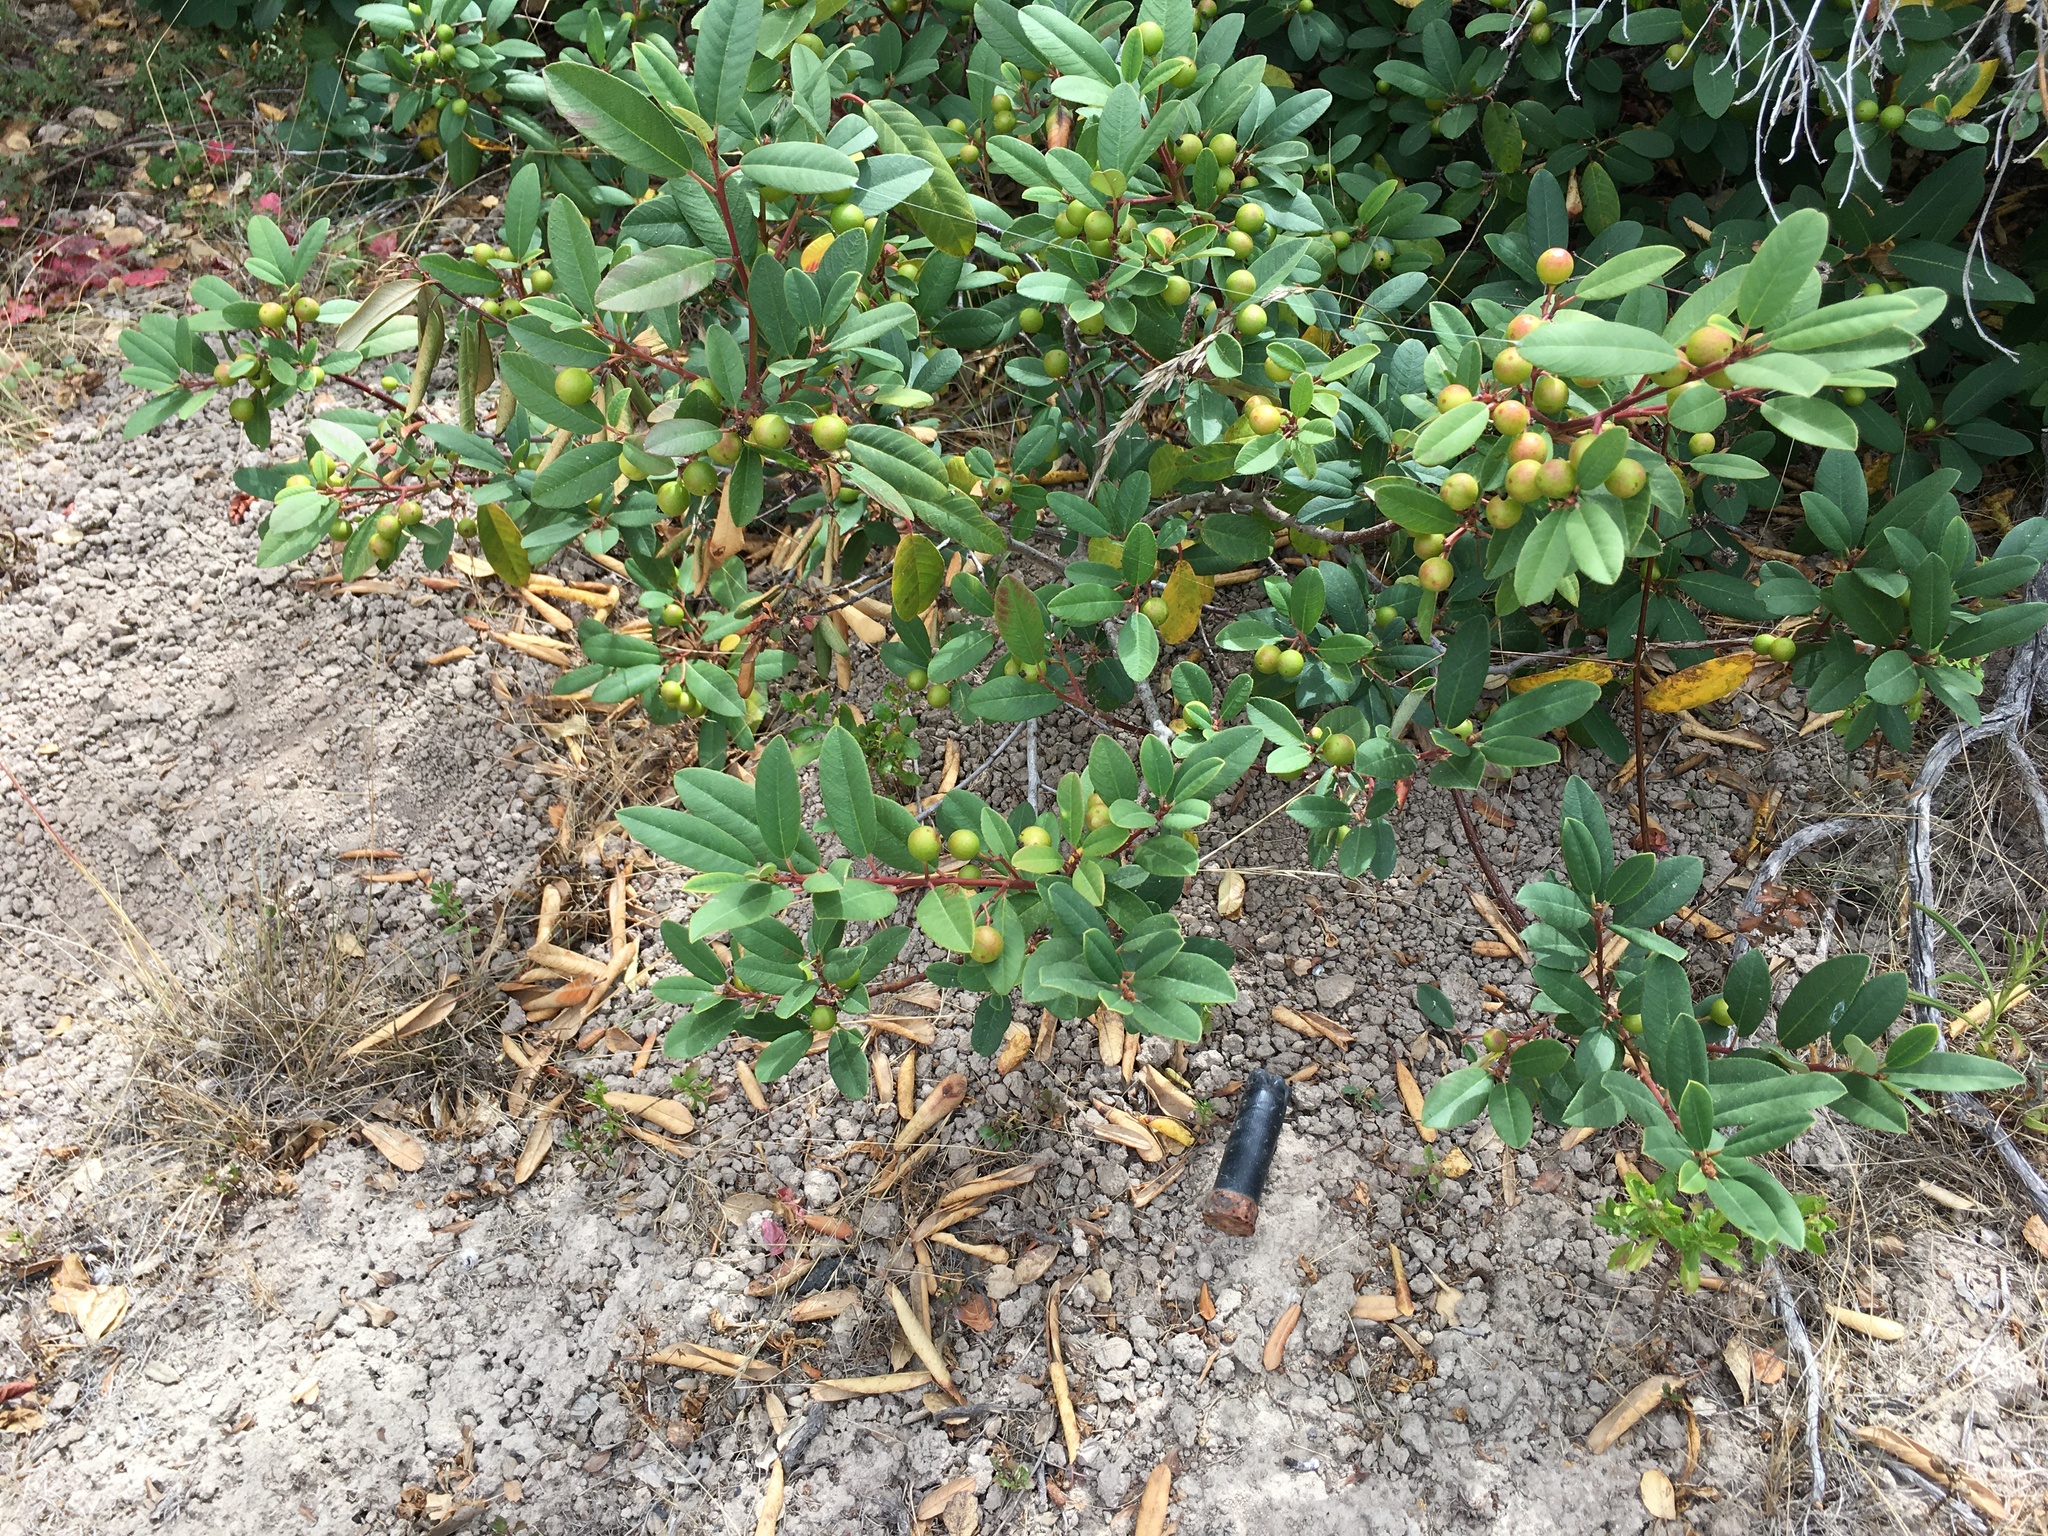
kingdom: Plantae
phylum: Tracheophyta
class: Magnoliopsida
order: Rosales
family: Rhamnaceae
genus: Frangula
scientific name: Frangula californica
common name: California buckthorn
